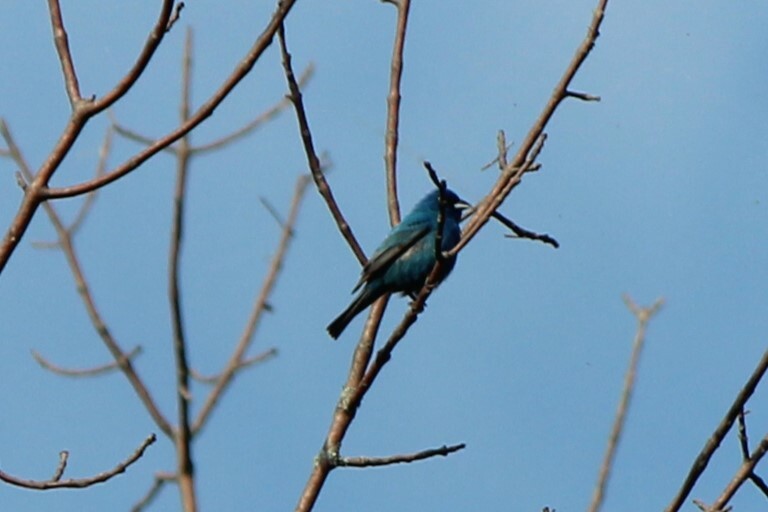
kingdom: Animalia
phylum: Chordata
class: Aves
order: Passeriformes
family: Cardinalidae
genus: Passerina
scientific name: Passerina cyanea
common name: Indigo bunting
